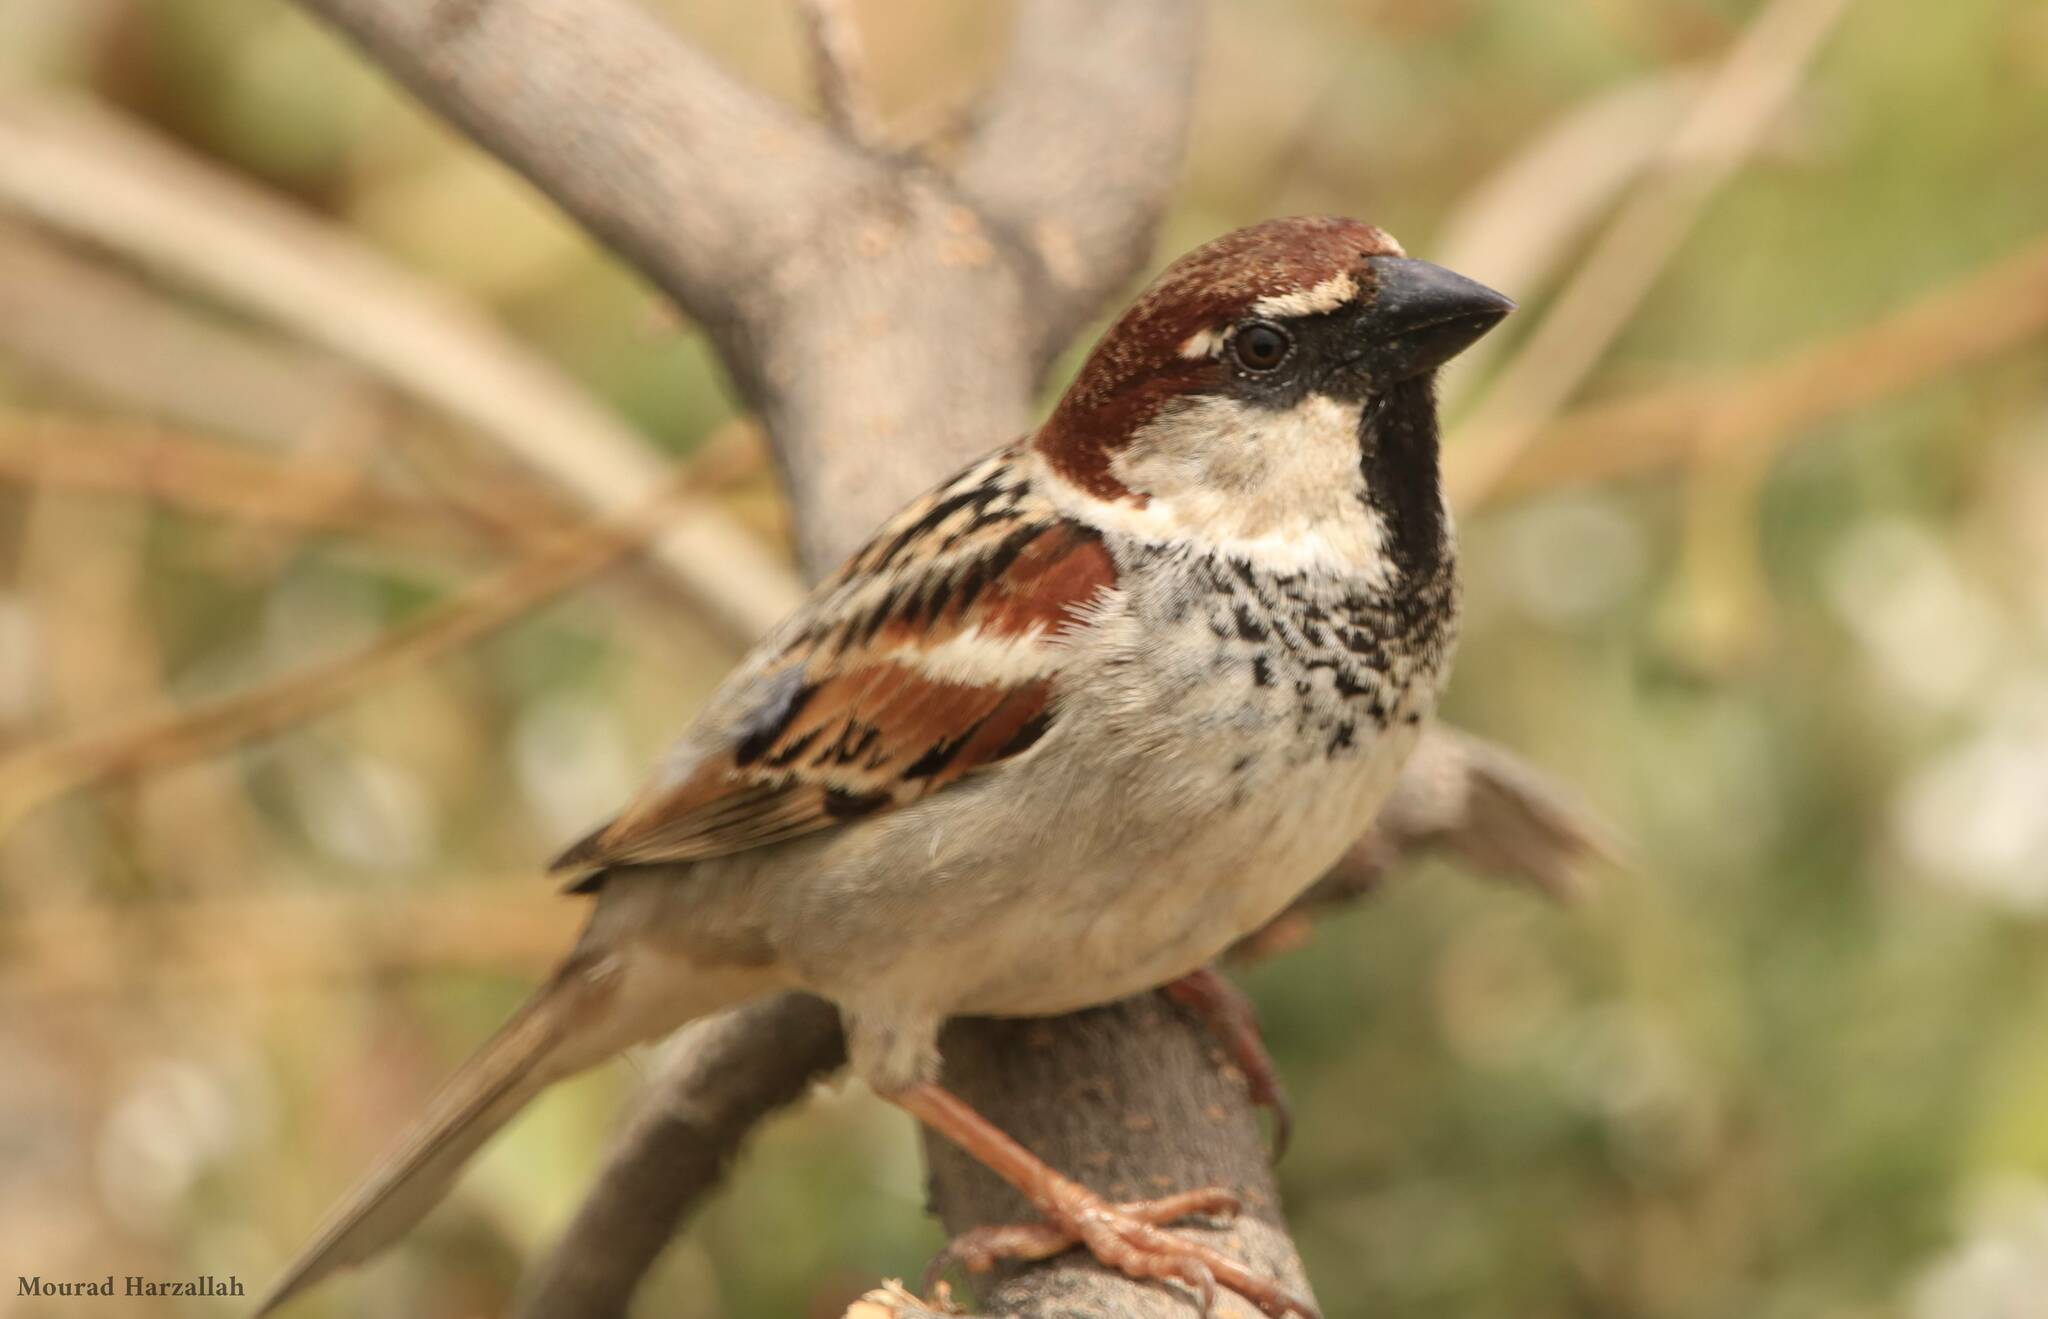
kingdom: Animalia
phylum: Chordata
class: Aves
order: Passeriformes
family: Passeridae
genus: Passer
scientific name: Passer hispaniolensis
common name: Spanish sparrow
